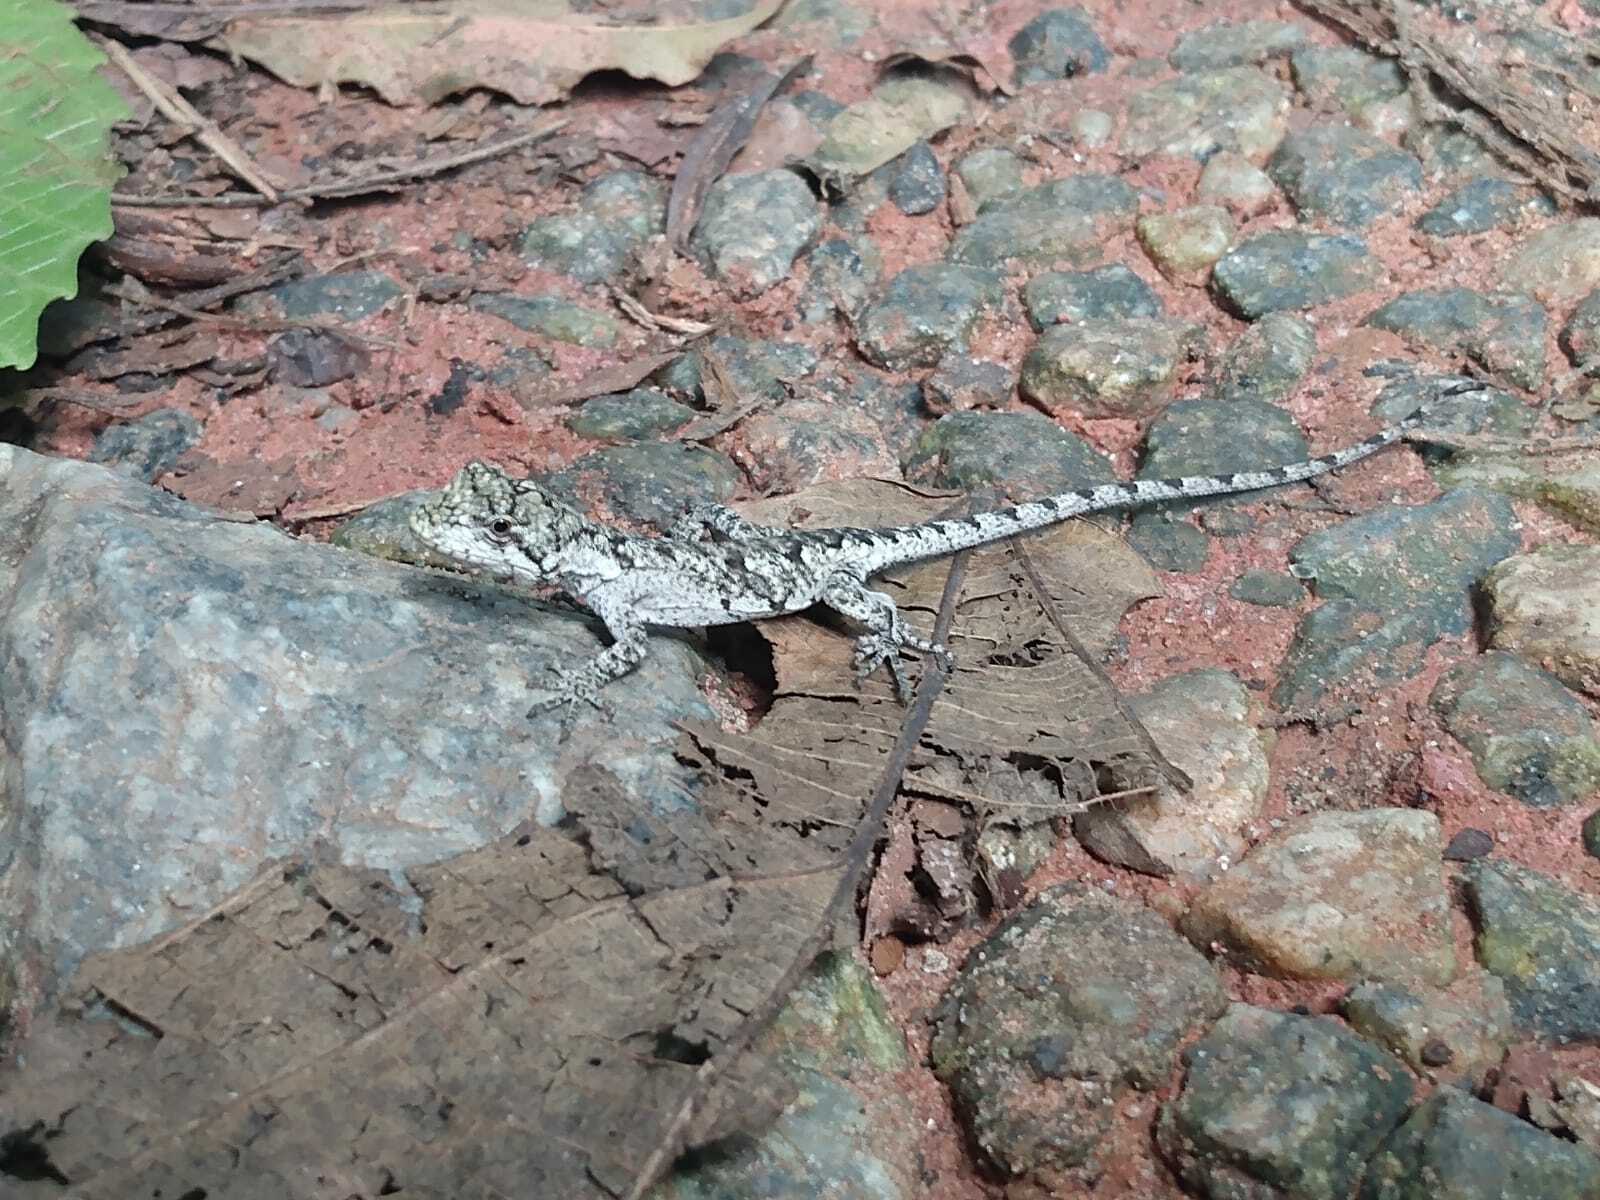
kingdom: Animalia
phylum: Chordata
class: Squamata
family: Leiosauridae
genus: Urostrophus
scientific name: Urostrophus vautieri
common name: Brazilian steppe iguana
